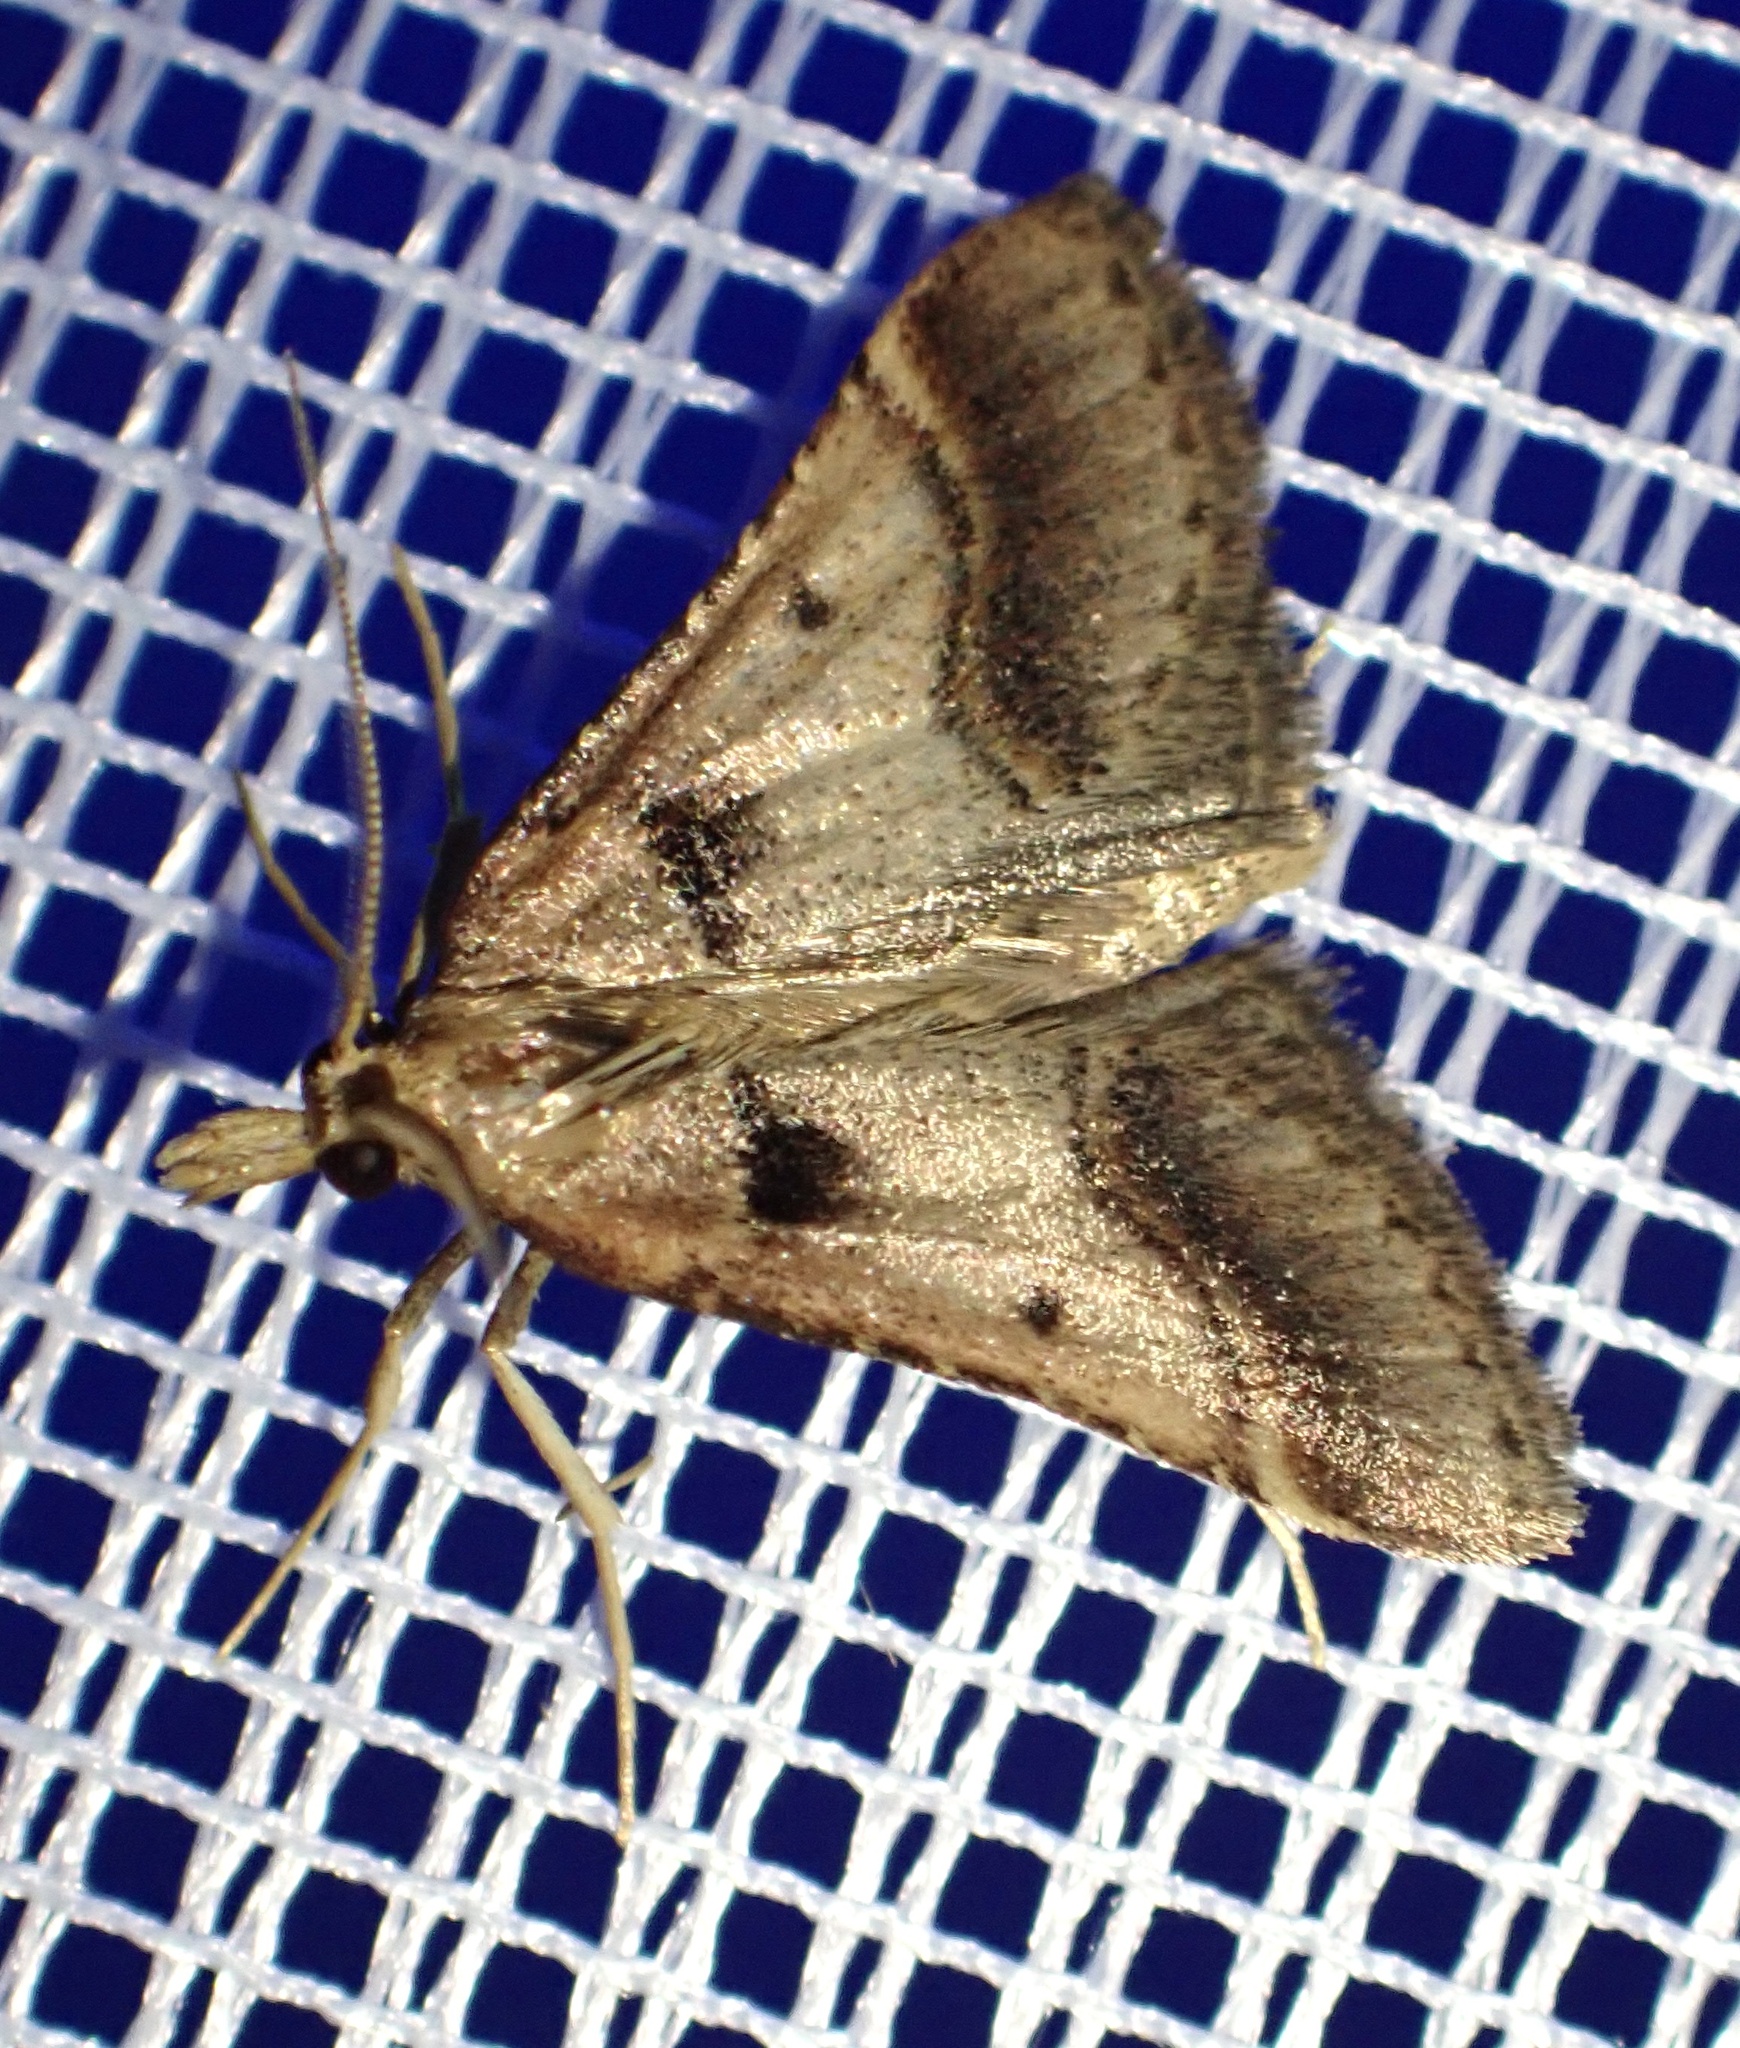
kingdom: Animalia
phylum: Arthropoda
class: Insecta
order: Lepidoptera
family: Pyralidae
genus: Stemmatophora
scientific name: Stemmatophora brunnealis
